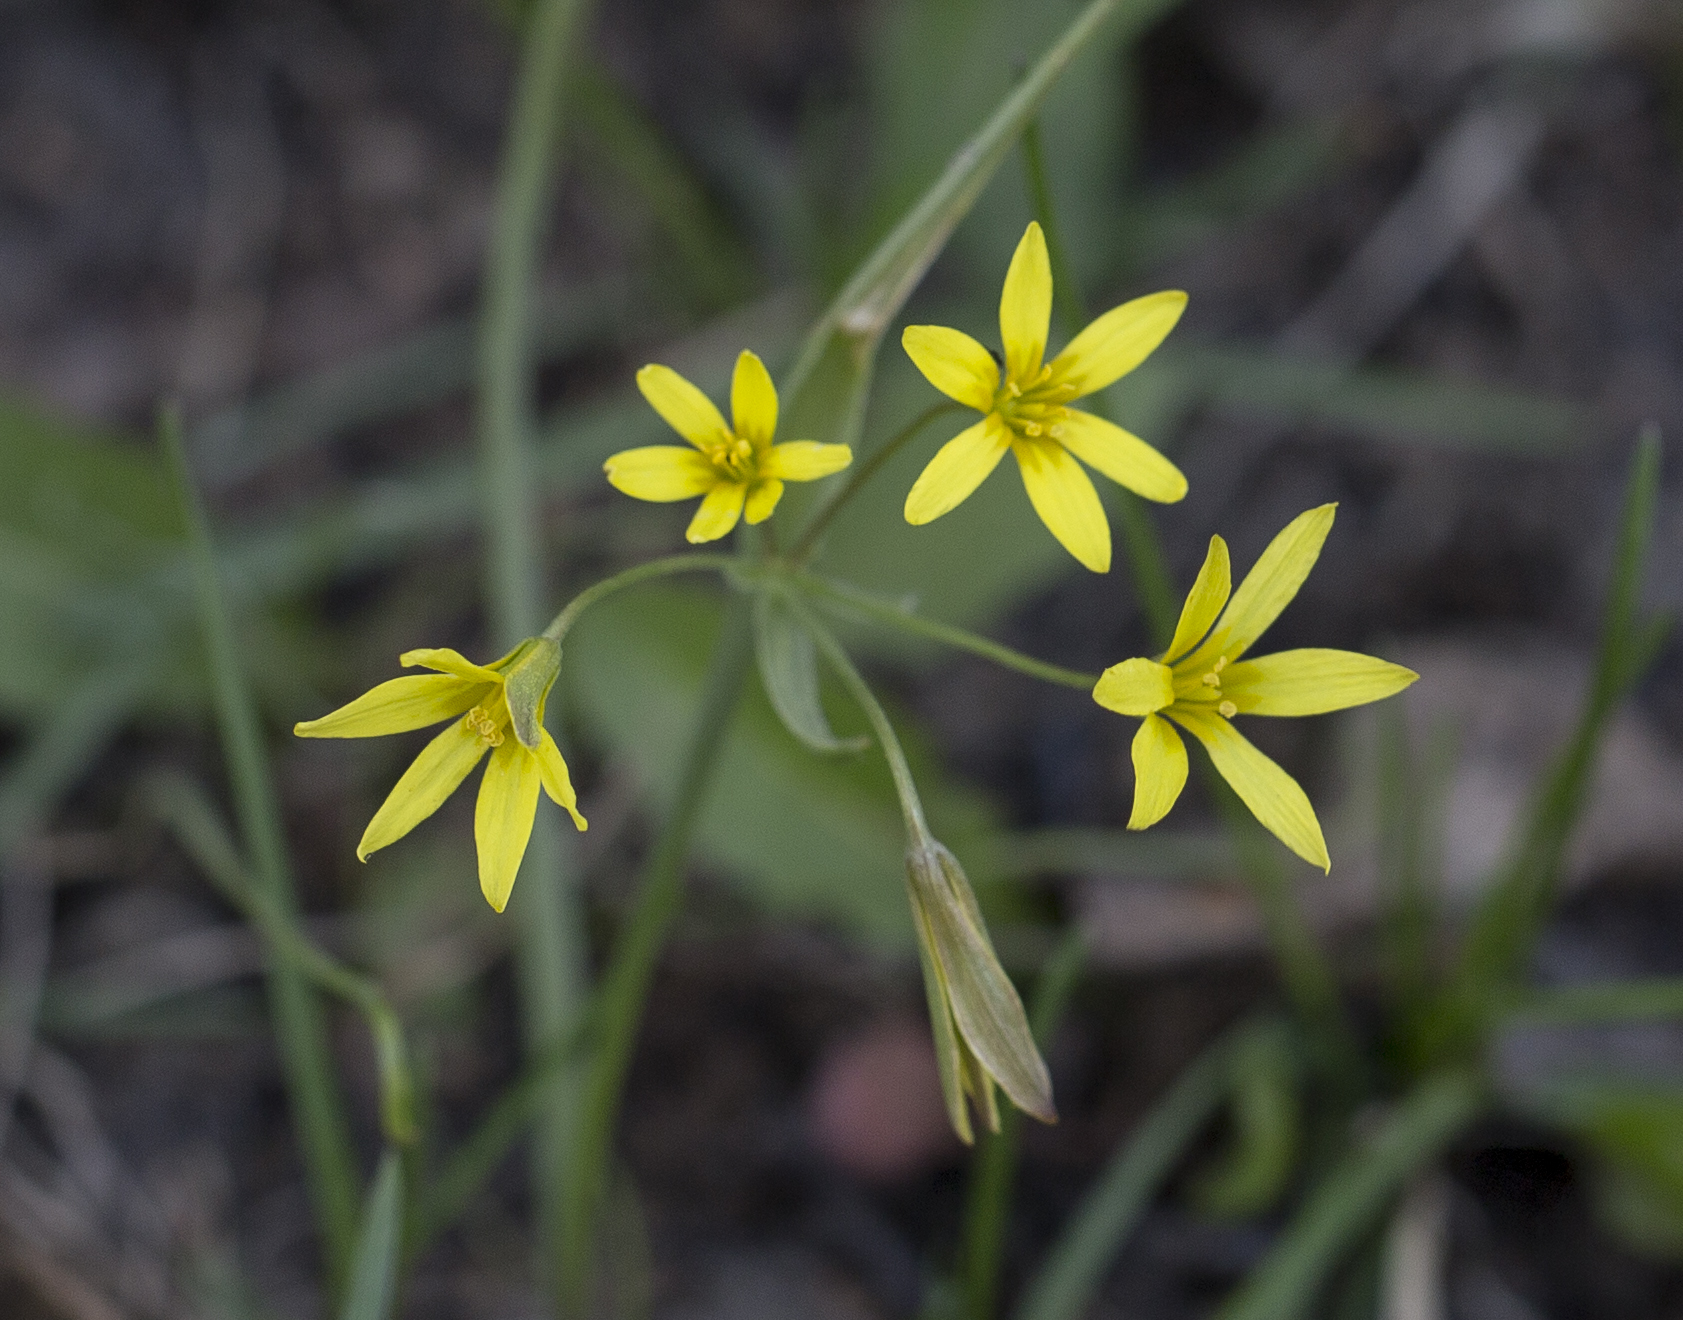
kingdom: Plantae
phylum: Tracheophyta
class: Liliopsida
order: Liliales
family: Liliaceae
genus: Gagea
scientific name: Gagea fragifera
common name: Lily
